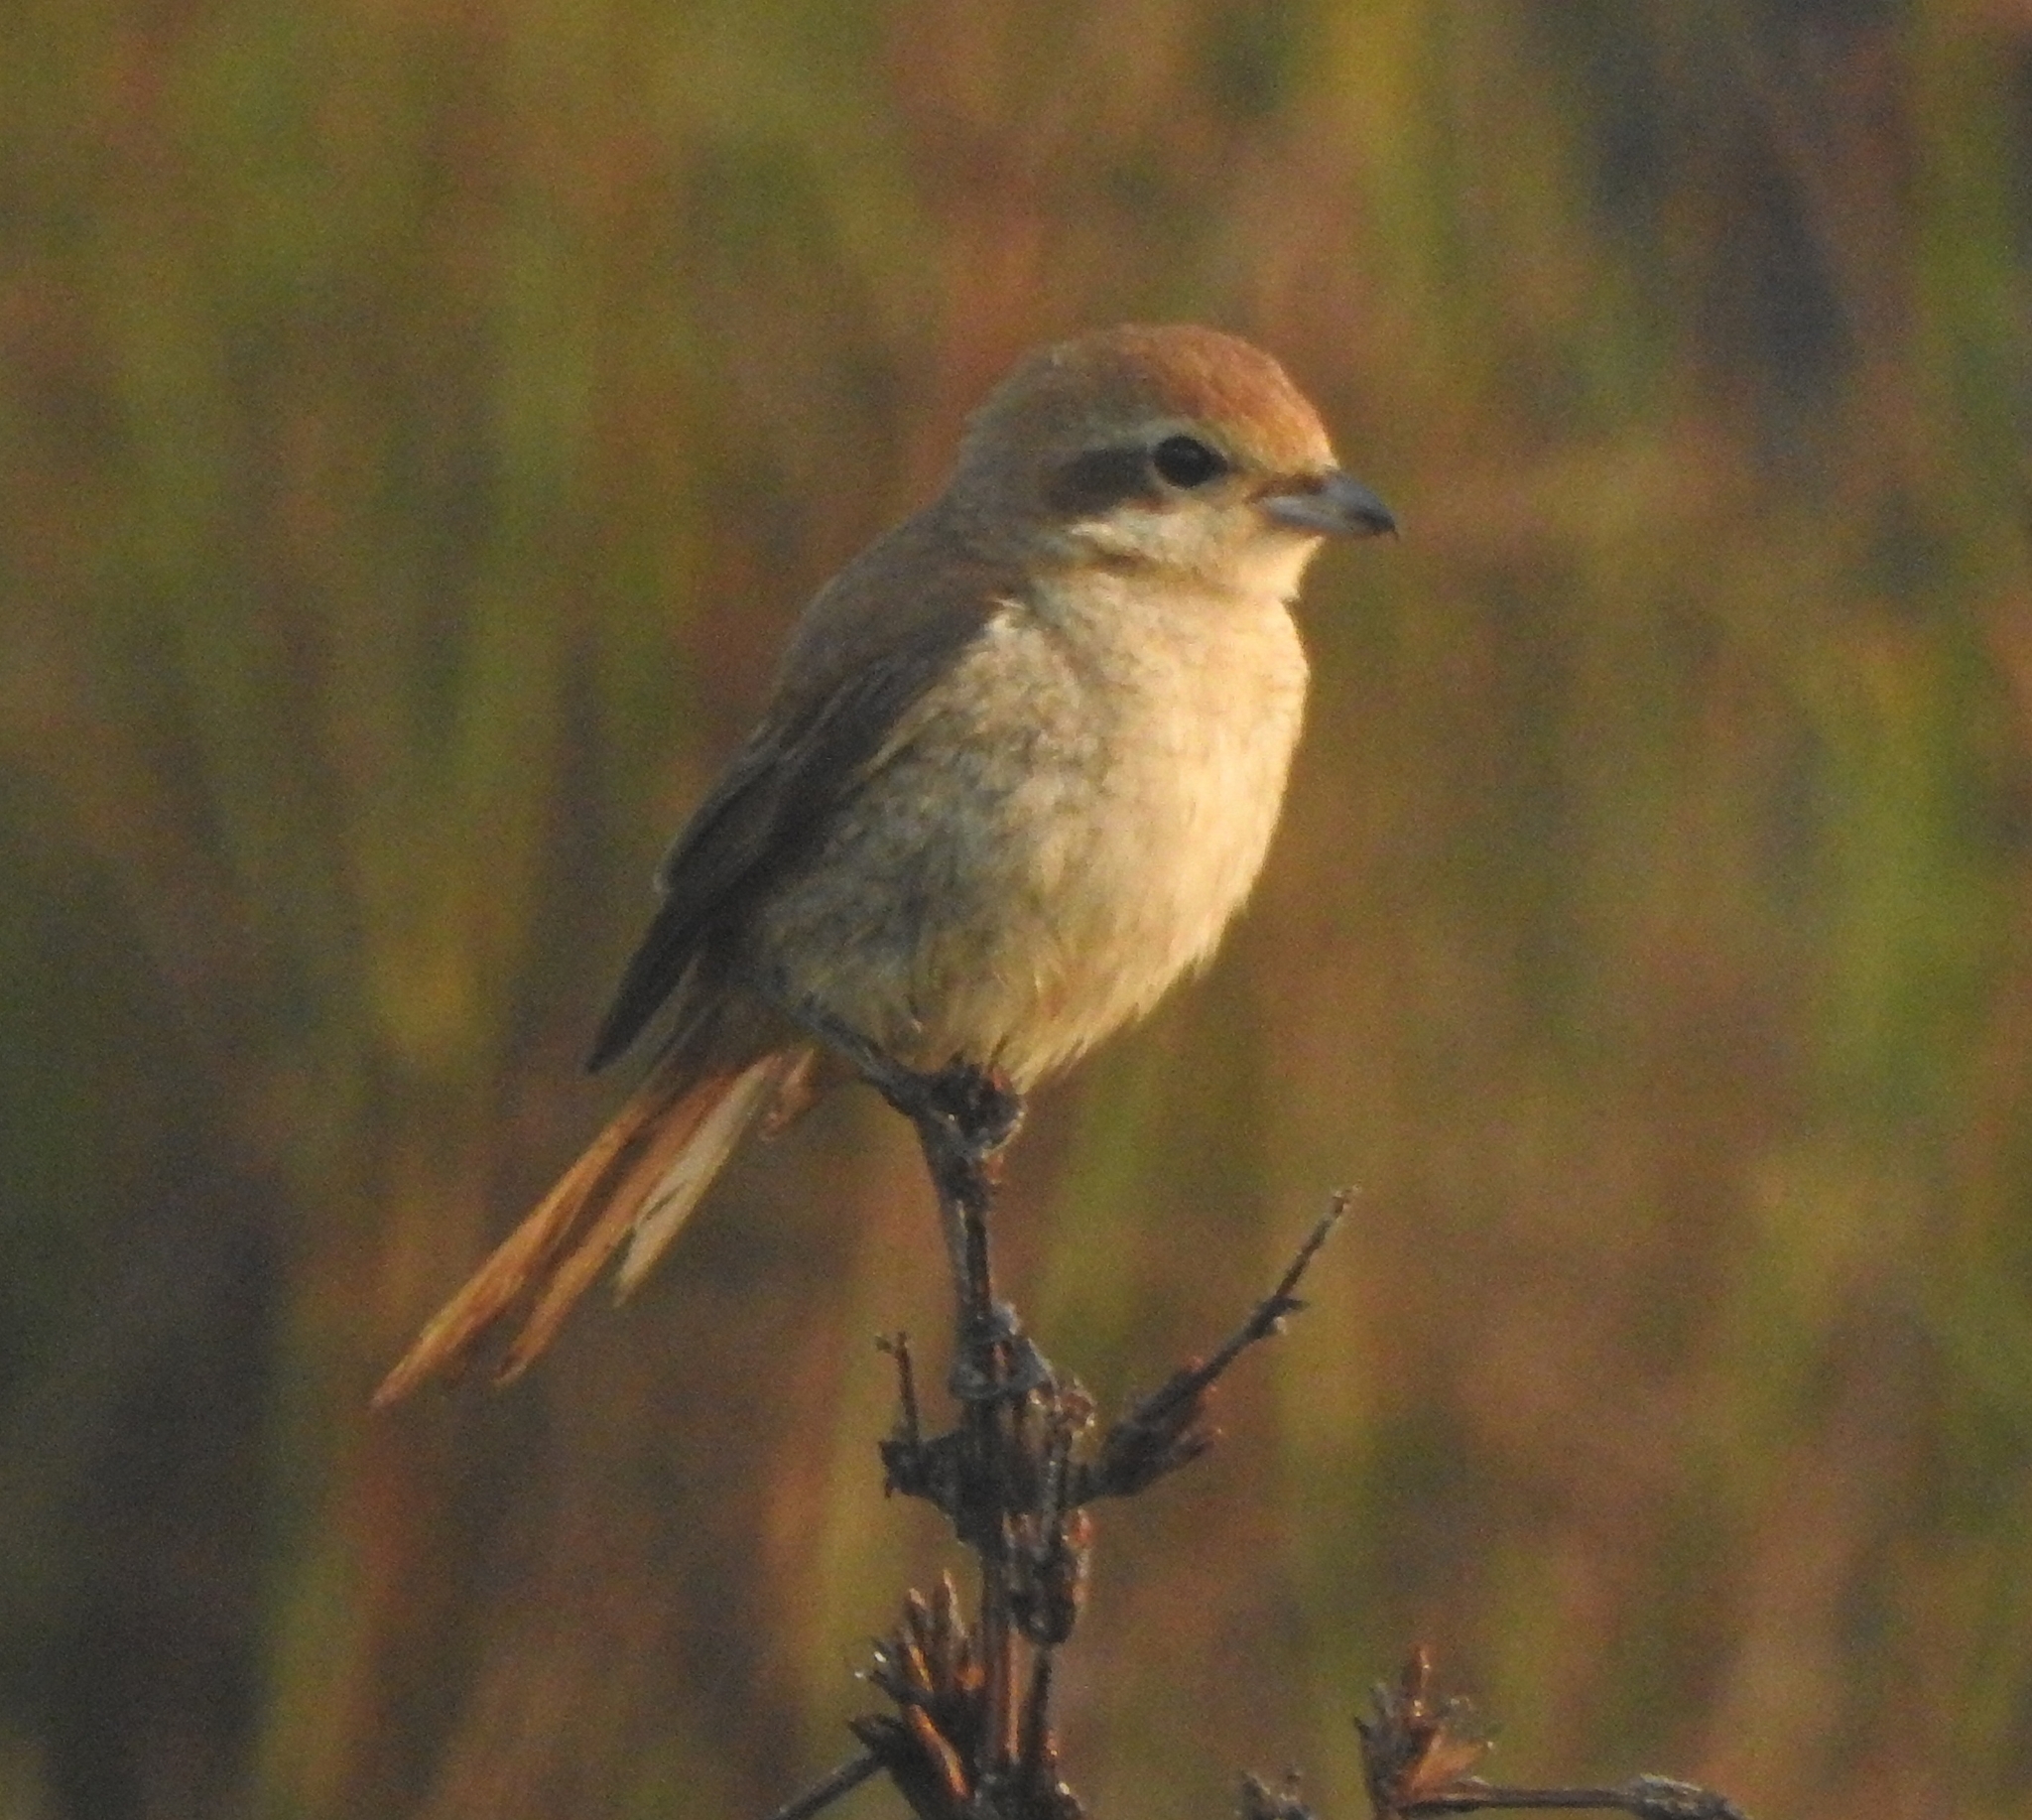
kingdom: Animalia
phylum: Chordata
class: Aves
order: Passeriformes
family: Laniidae
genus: Lanius
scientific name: Lanius cristatus
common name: Brown shrike
